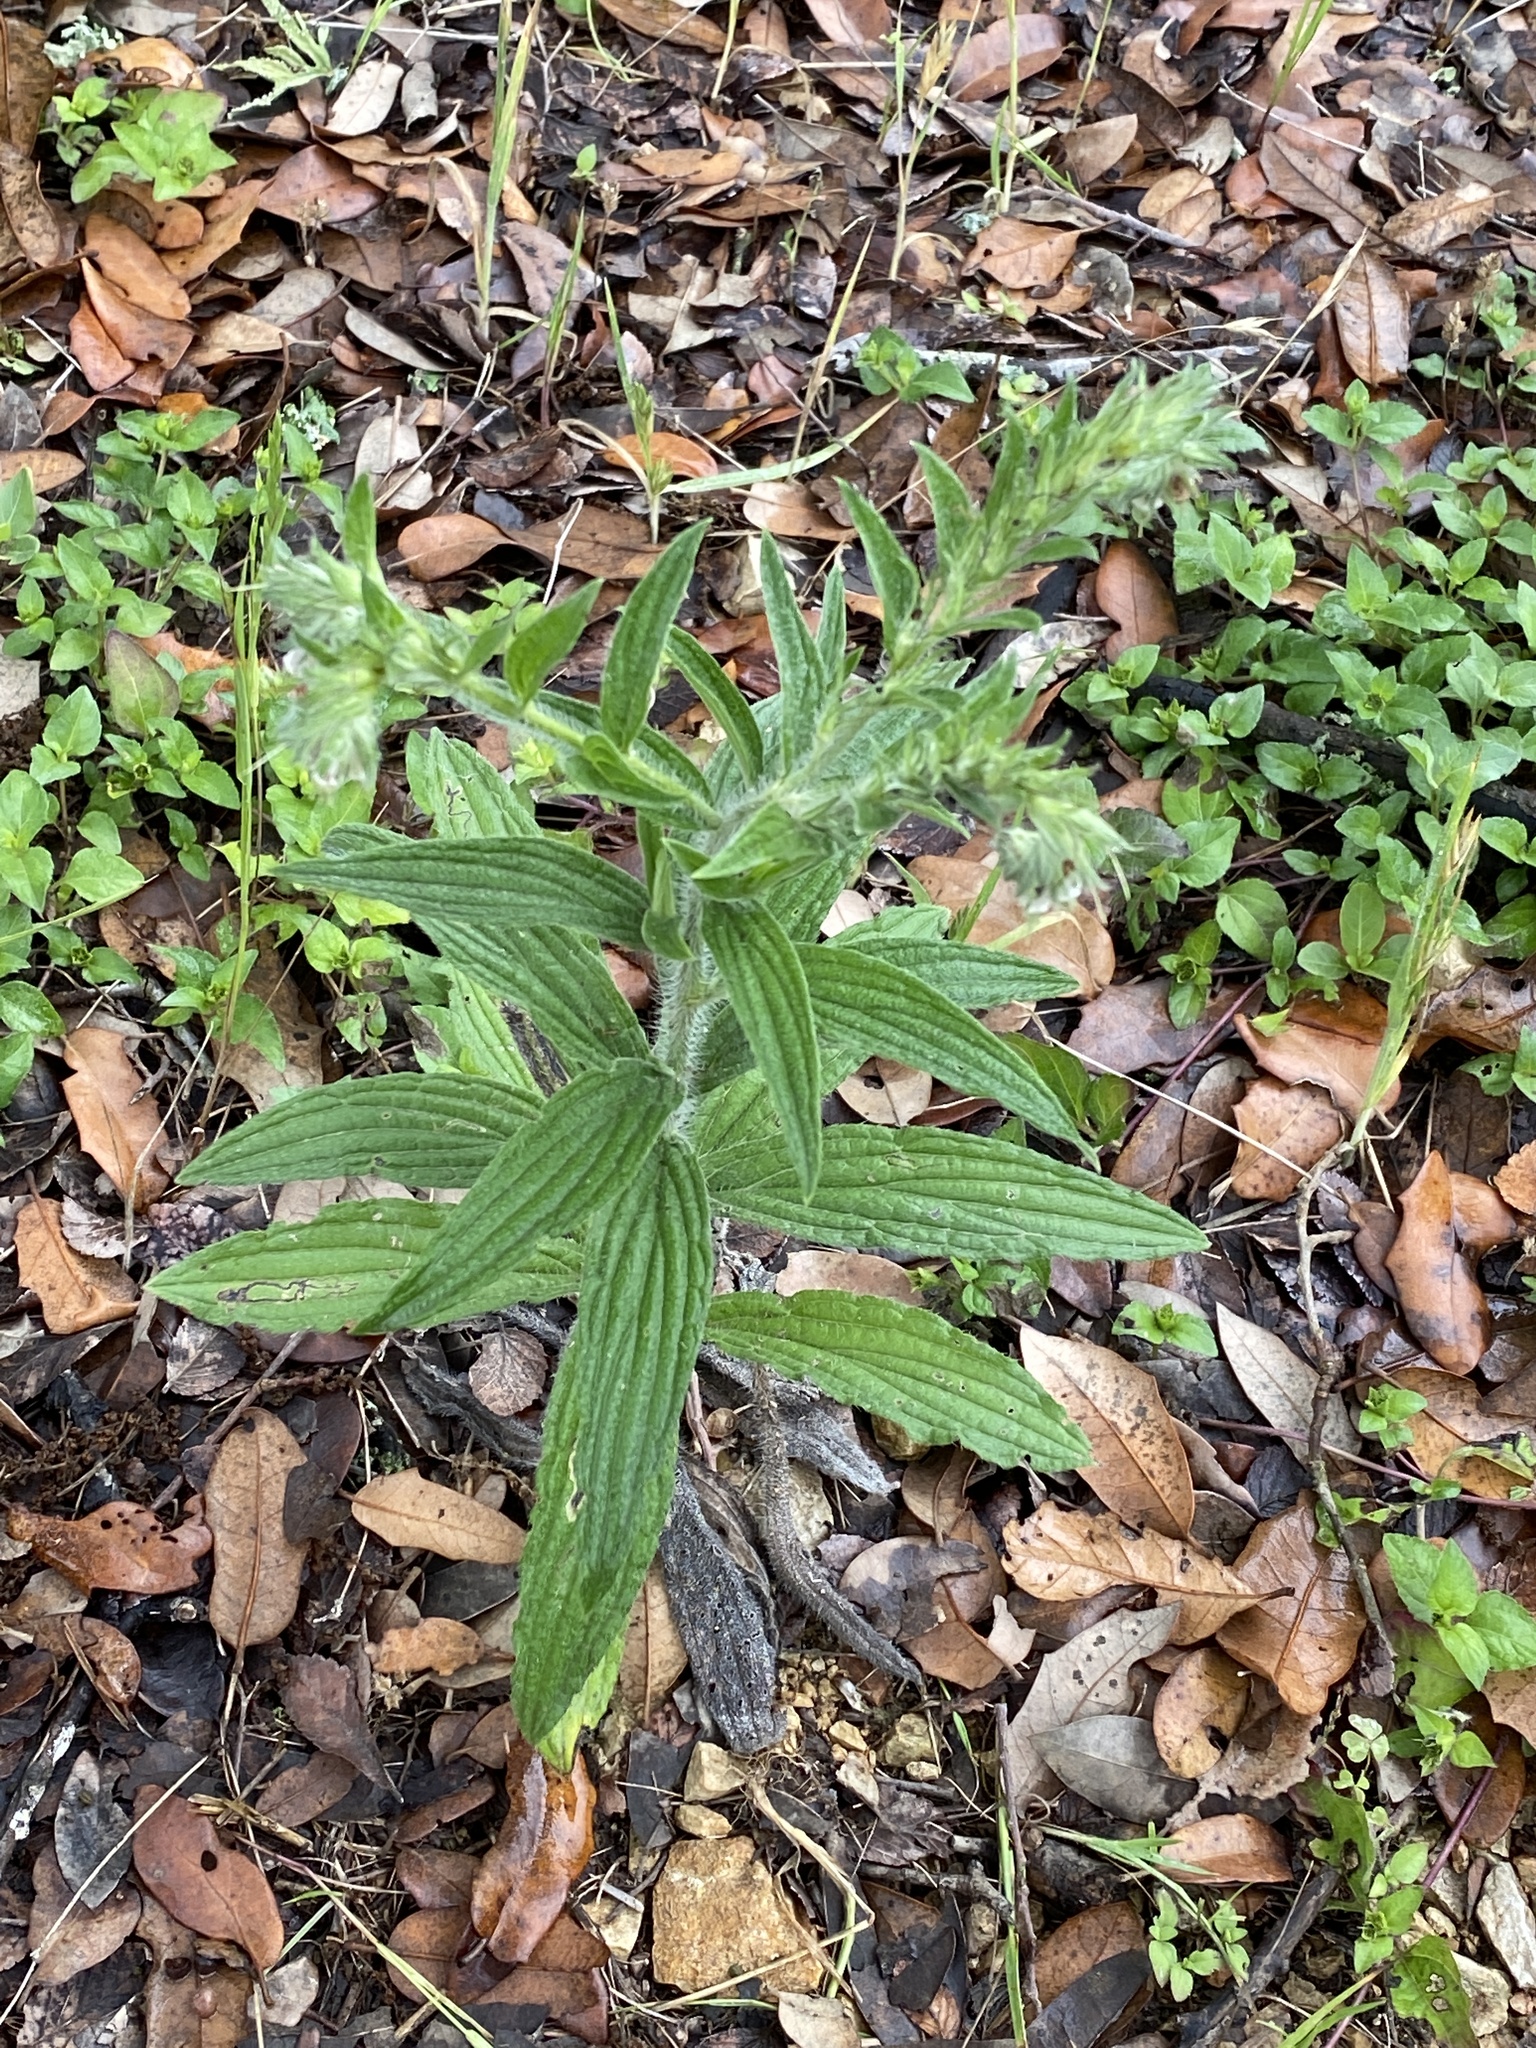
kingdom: Plantae
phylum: Tracheophyta
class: Magnoliopsida
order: Boraginales
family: Boraginaceae
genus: Lithospermum
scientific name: Lithospermum caroliniense
